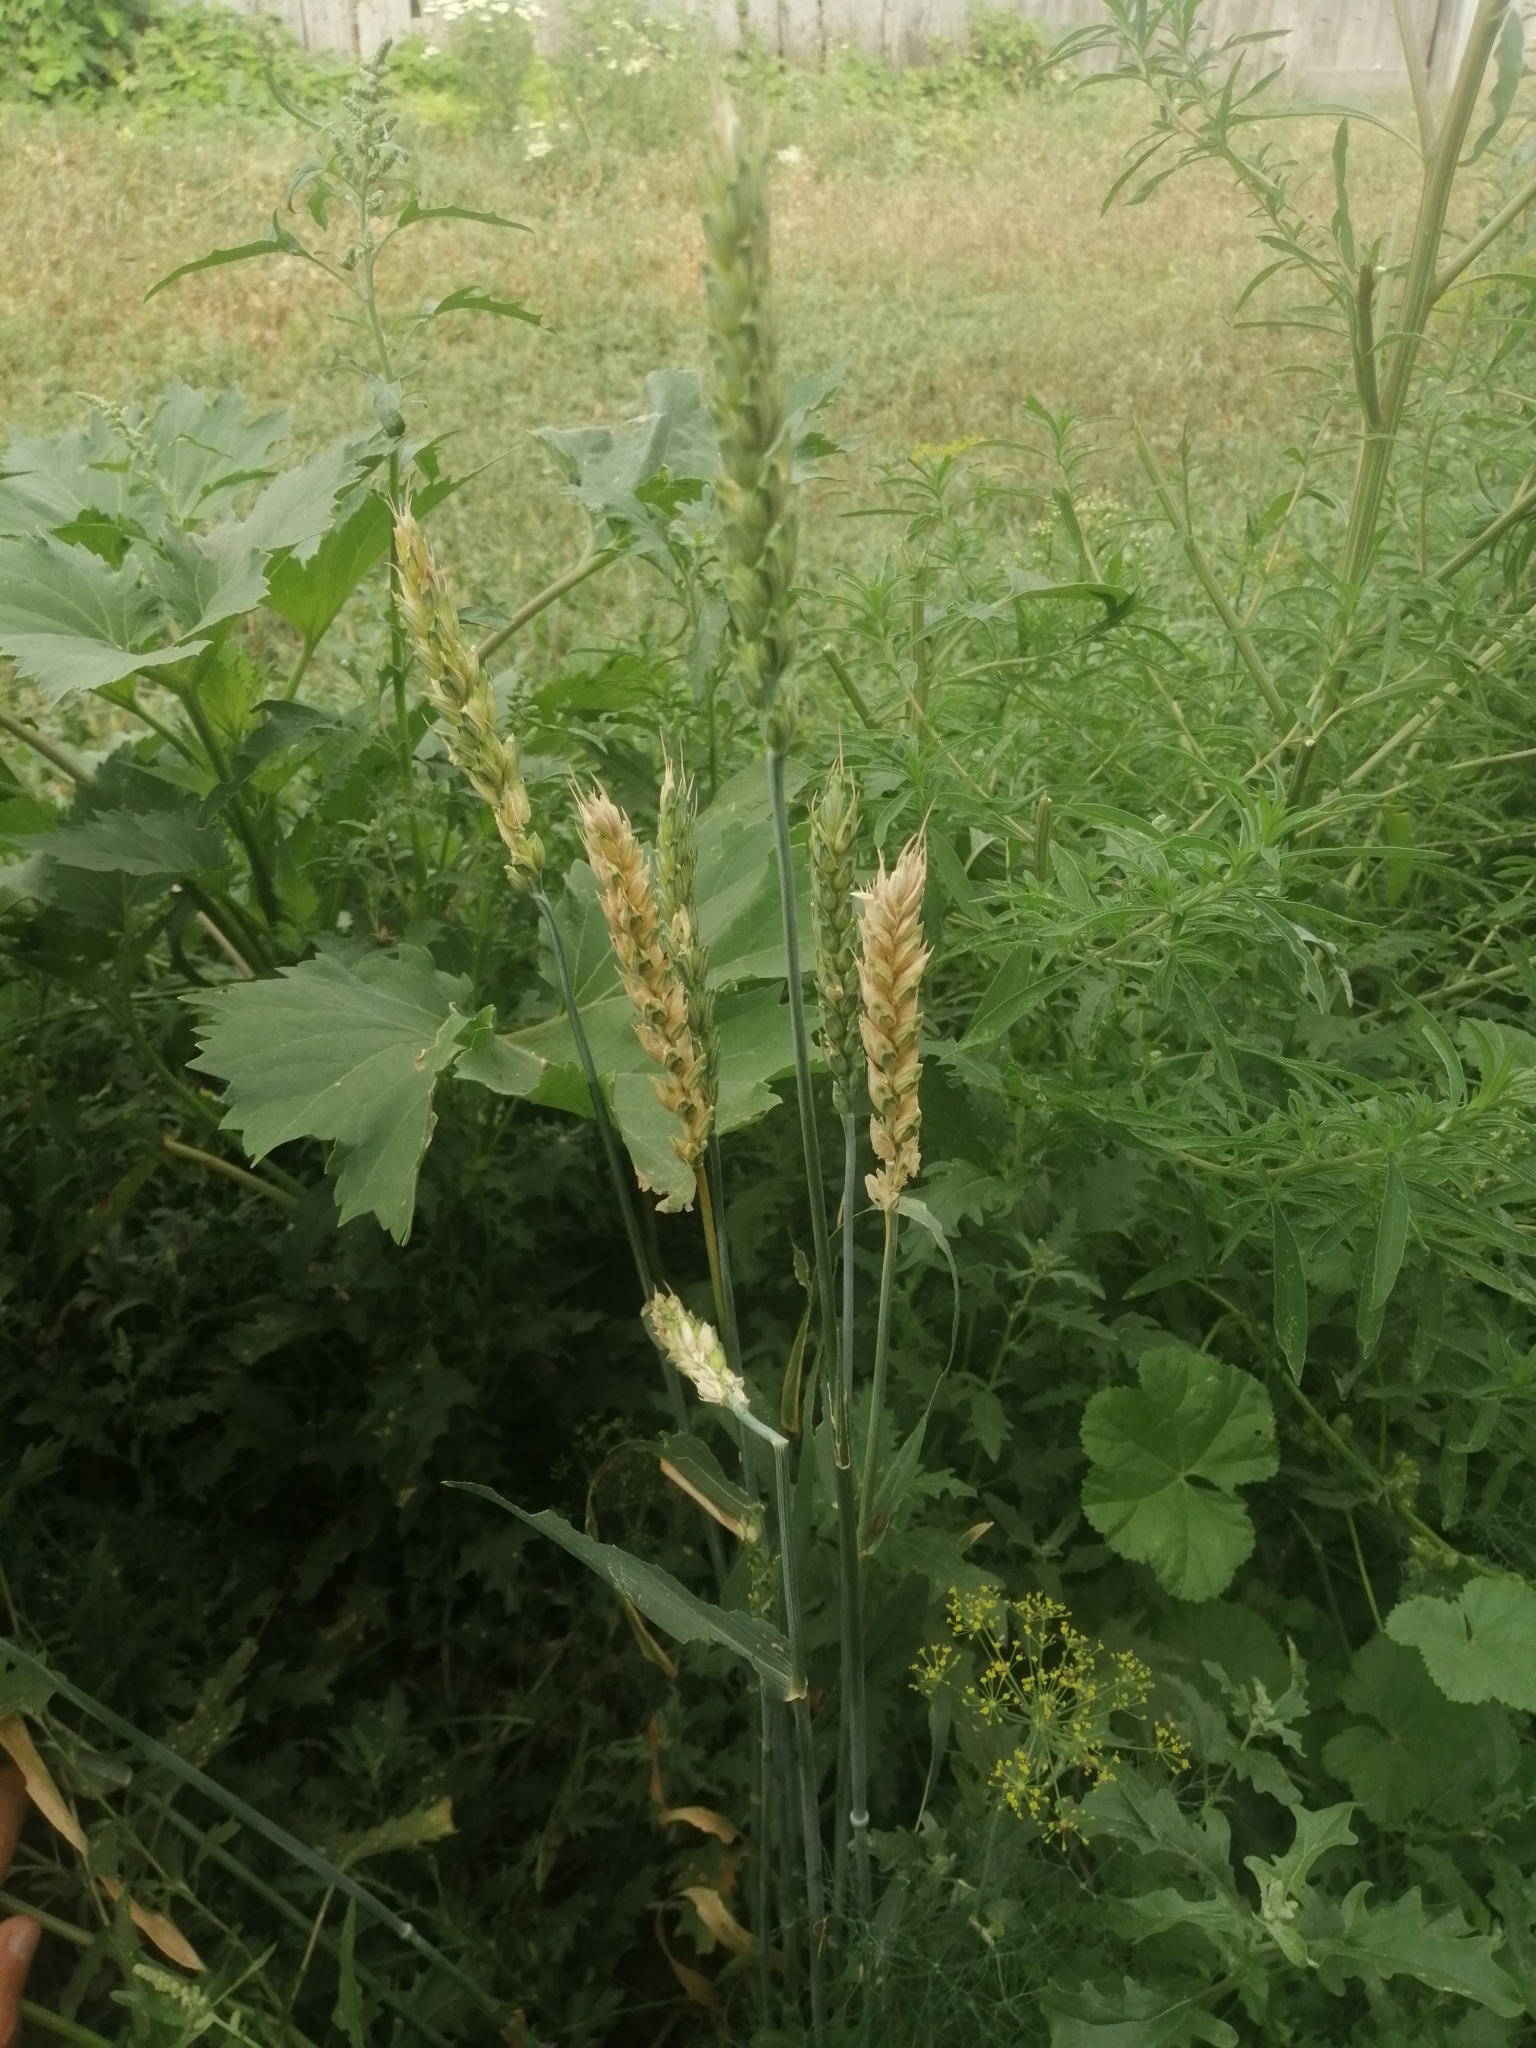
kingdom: Plantae
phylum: Tracheophyta
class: Liliopsida
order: Poales
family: Poaceae
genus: Triticum
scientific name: Triticum aestivum
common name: Common wheat
